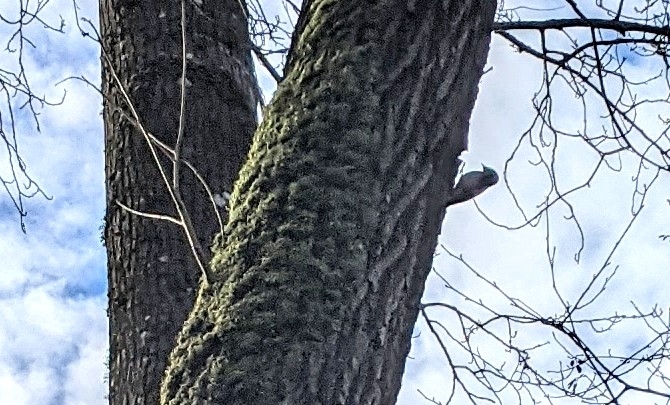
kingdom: Animalia
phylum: Chordata
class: Aves
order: Piciformes
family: Picidae
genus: Dryobates
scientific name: Dryobates pubescens
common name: Downy woodpecker
